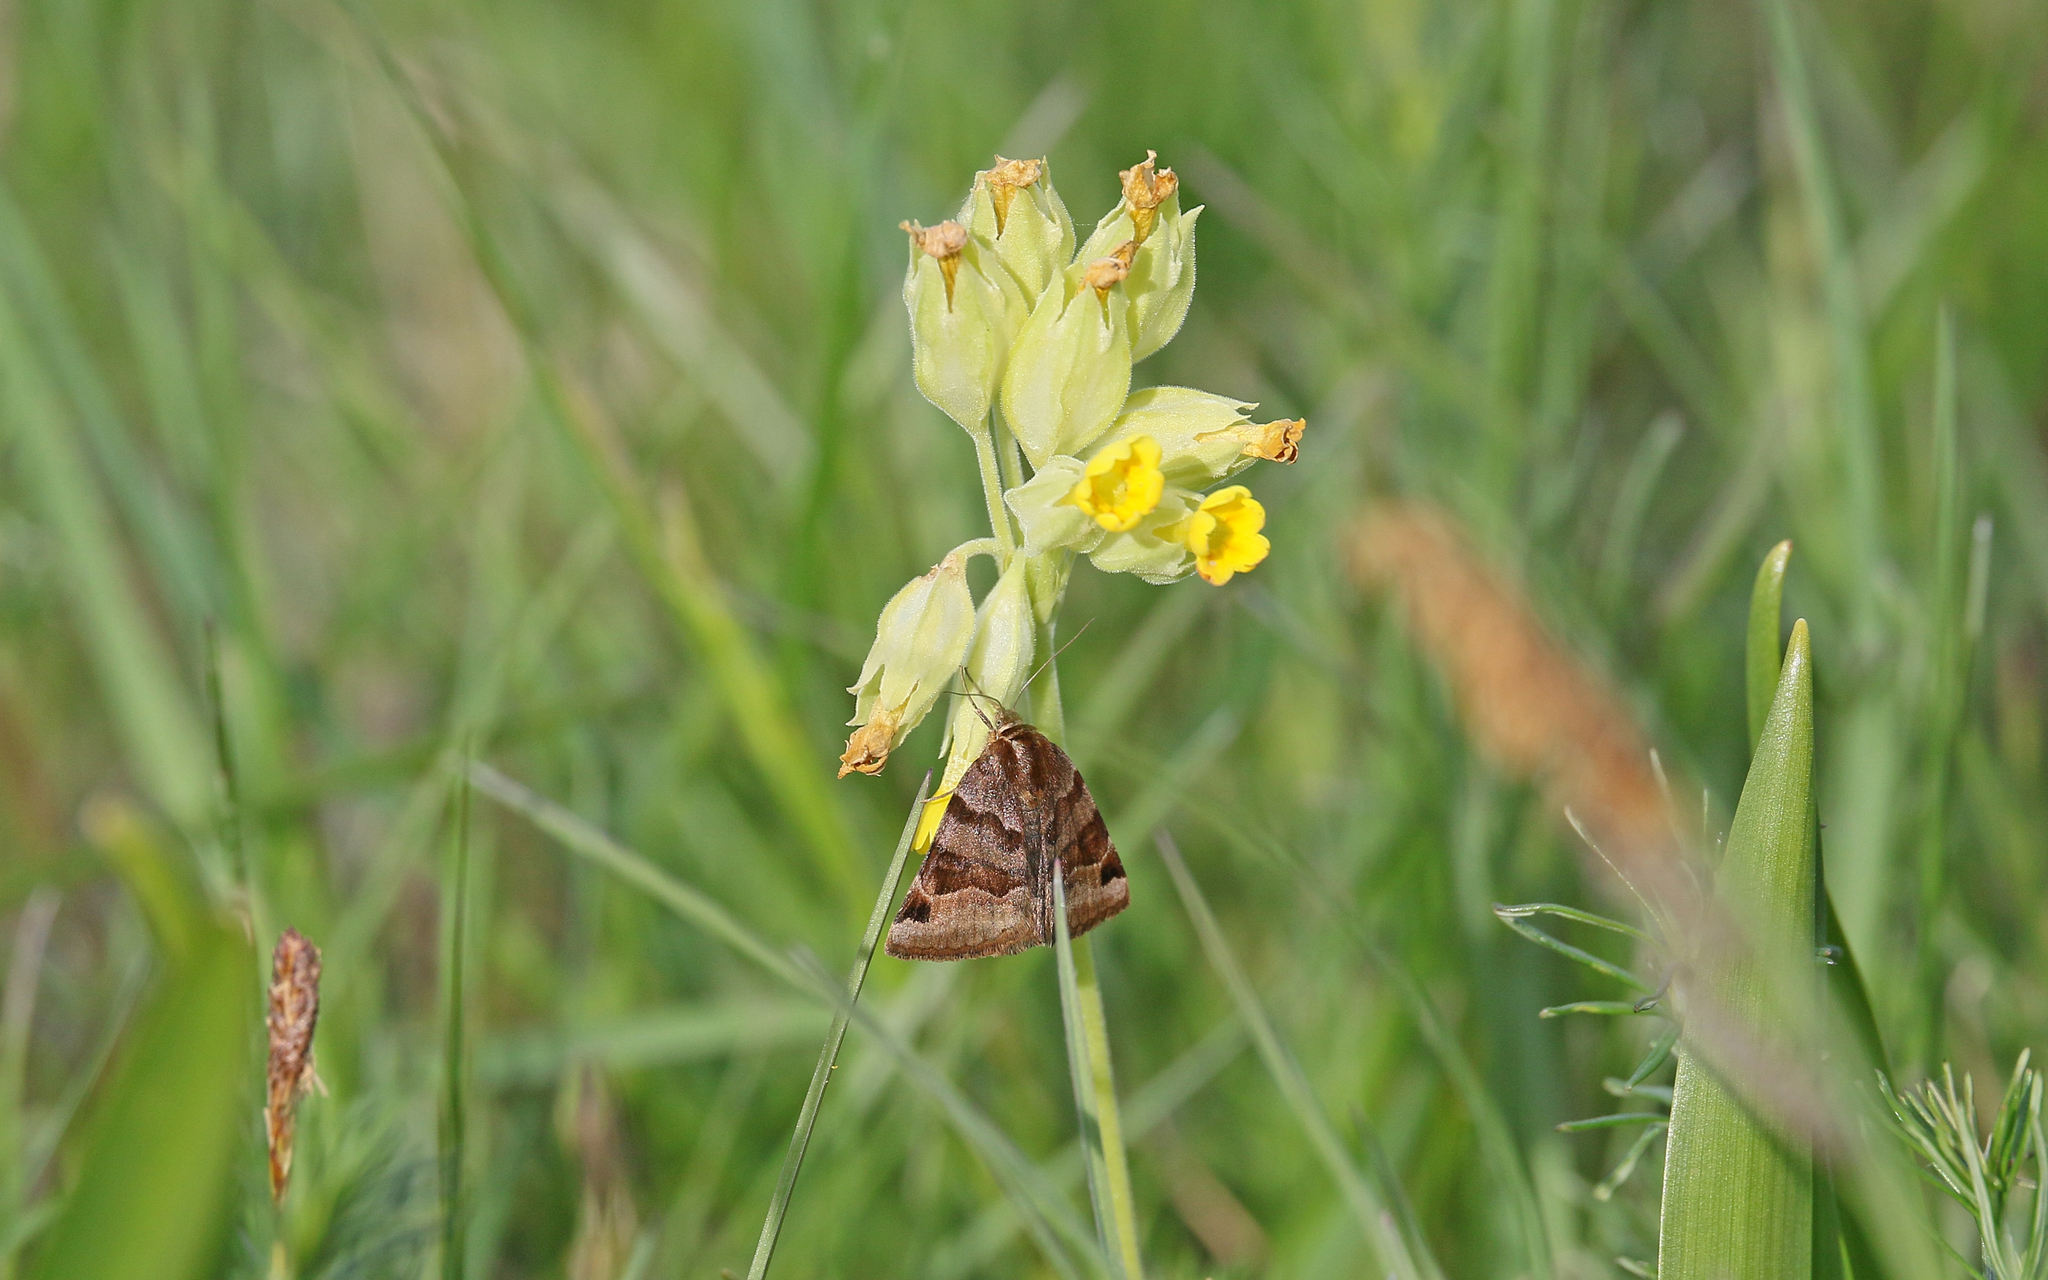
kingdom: Animalia
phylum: Arthropoda
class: Insecta
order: Lepidoptera
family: Erebidae
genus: Euclidia
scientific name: Euclidia glyphica
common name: Burnet companion
